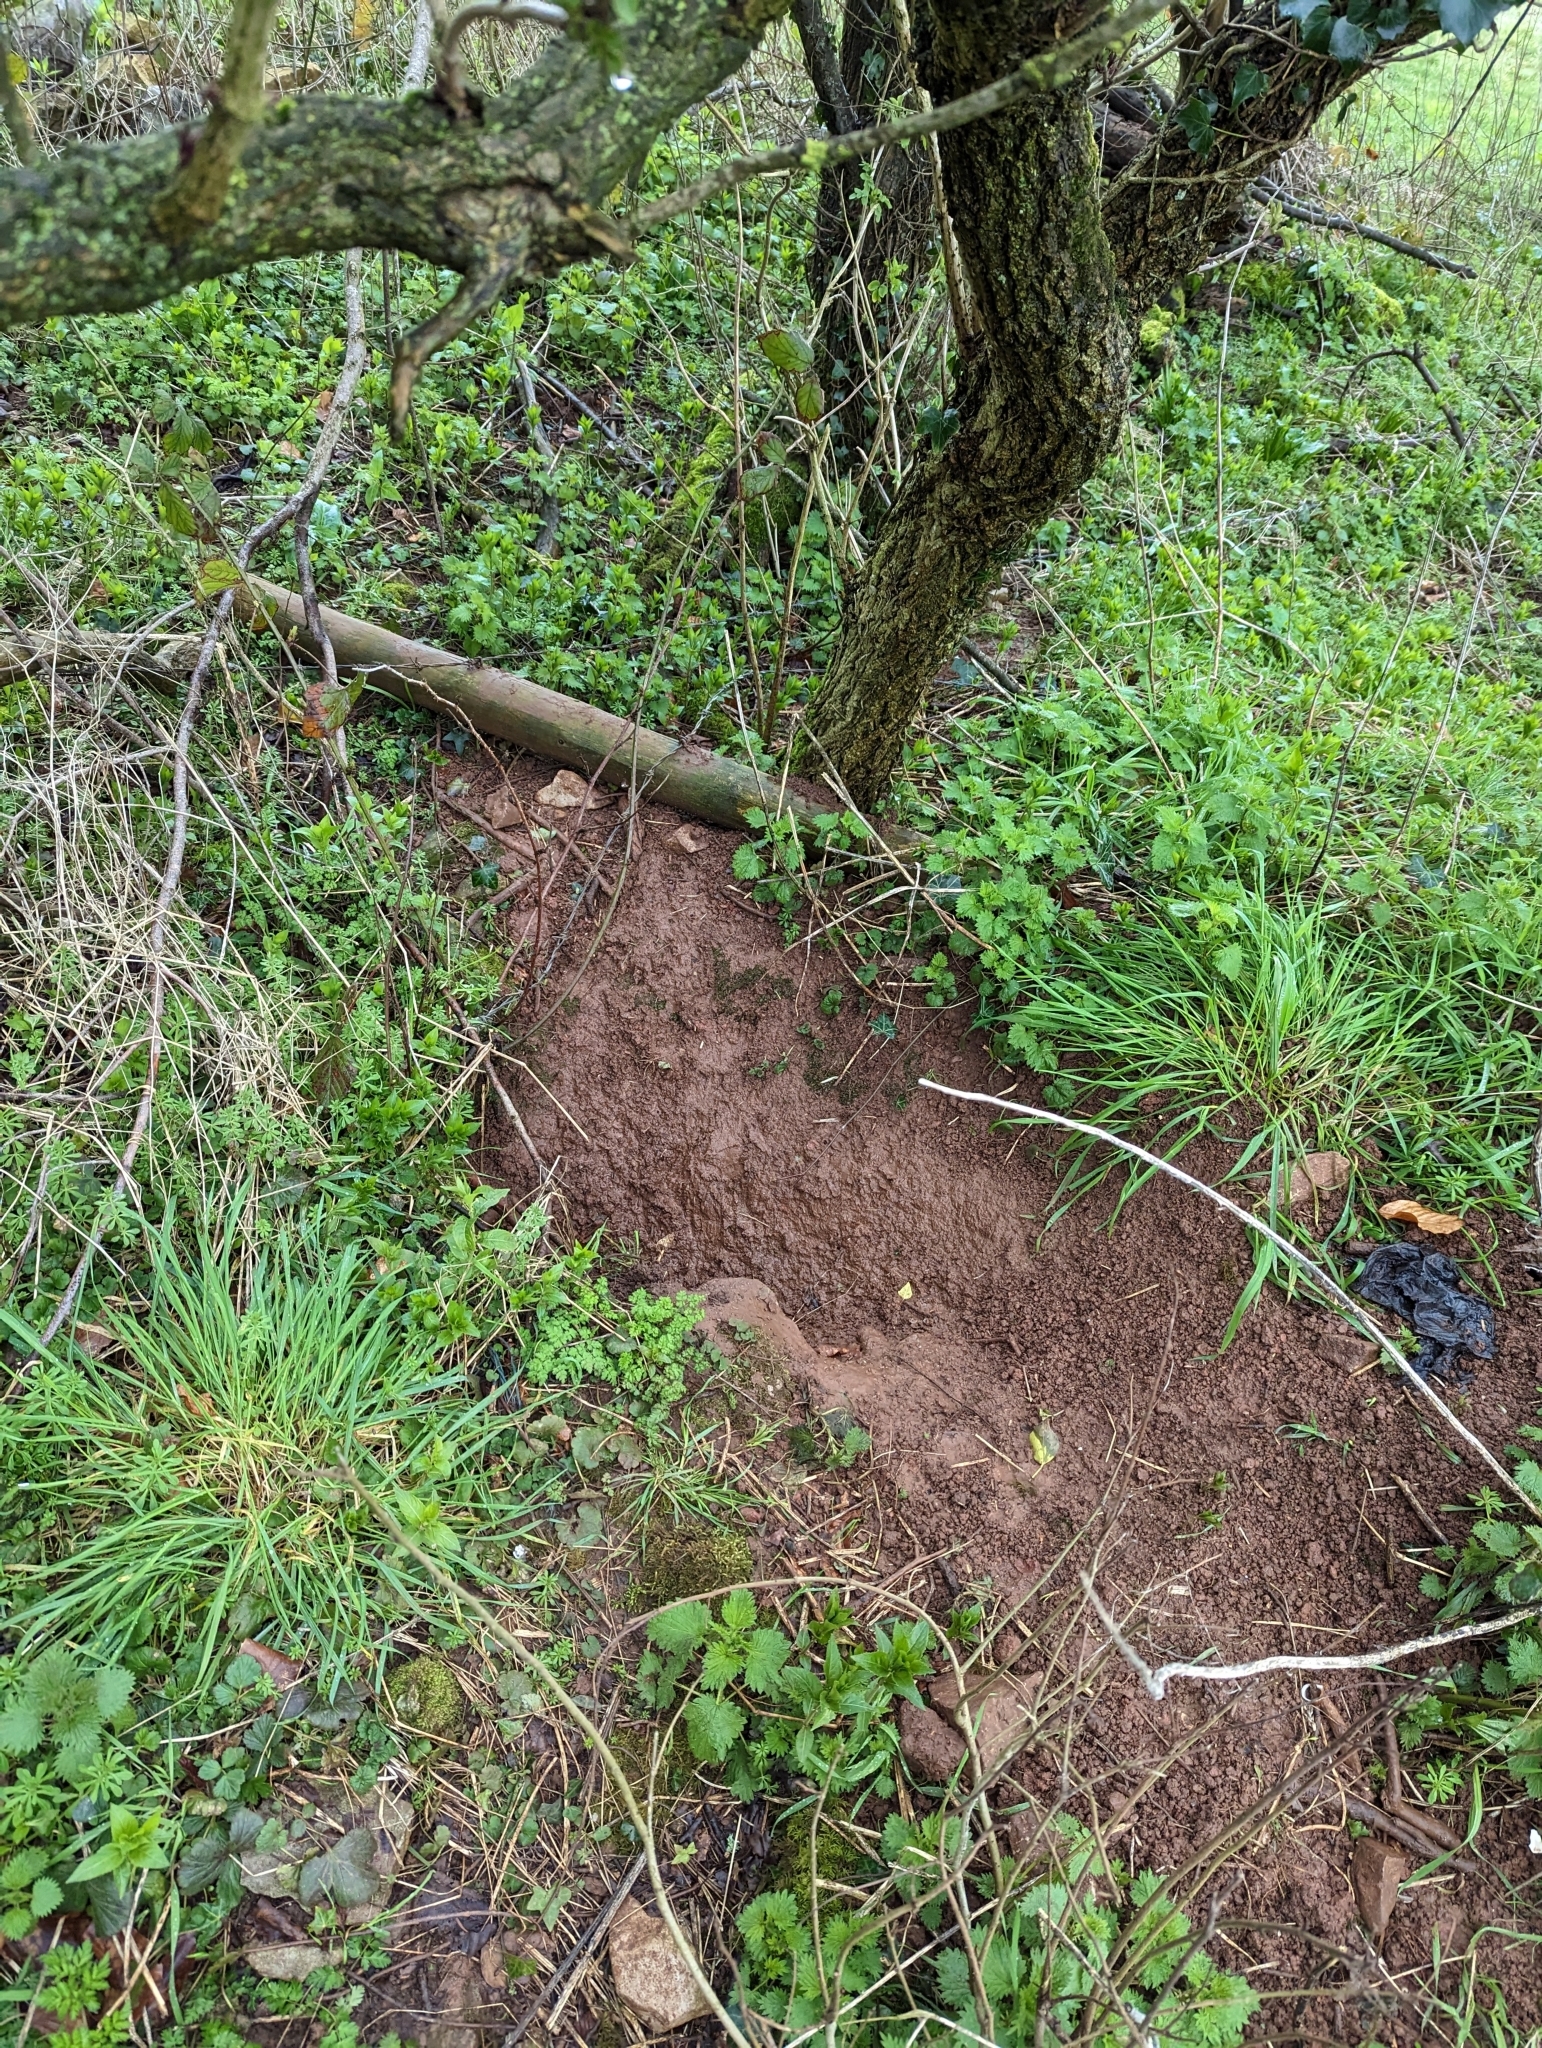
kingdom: Animalia
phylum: Chordata
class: Mammalia
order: Carnivora
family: Mustelidae
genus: Meles
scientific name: Meles meles
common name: Eurasian badger
